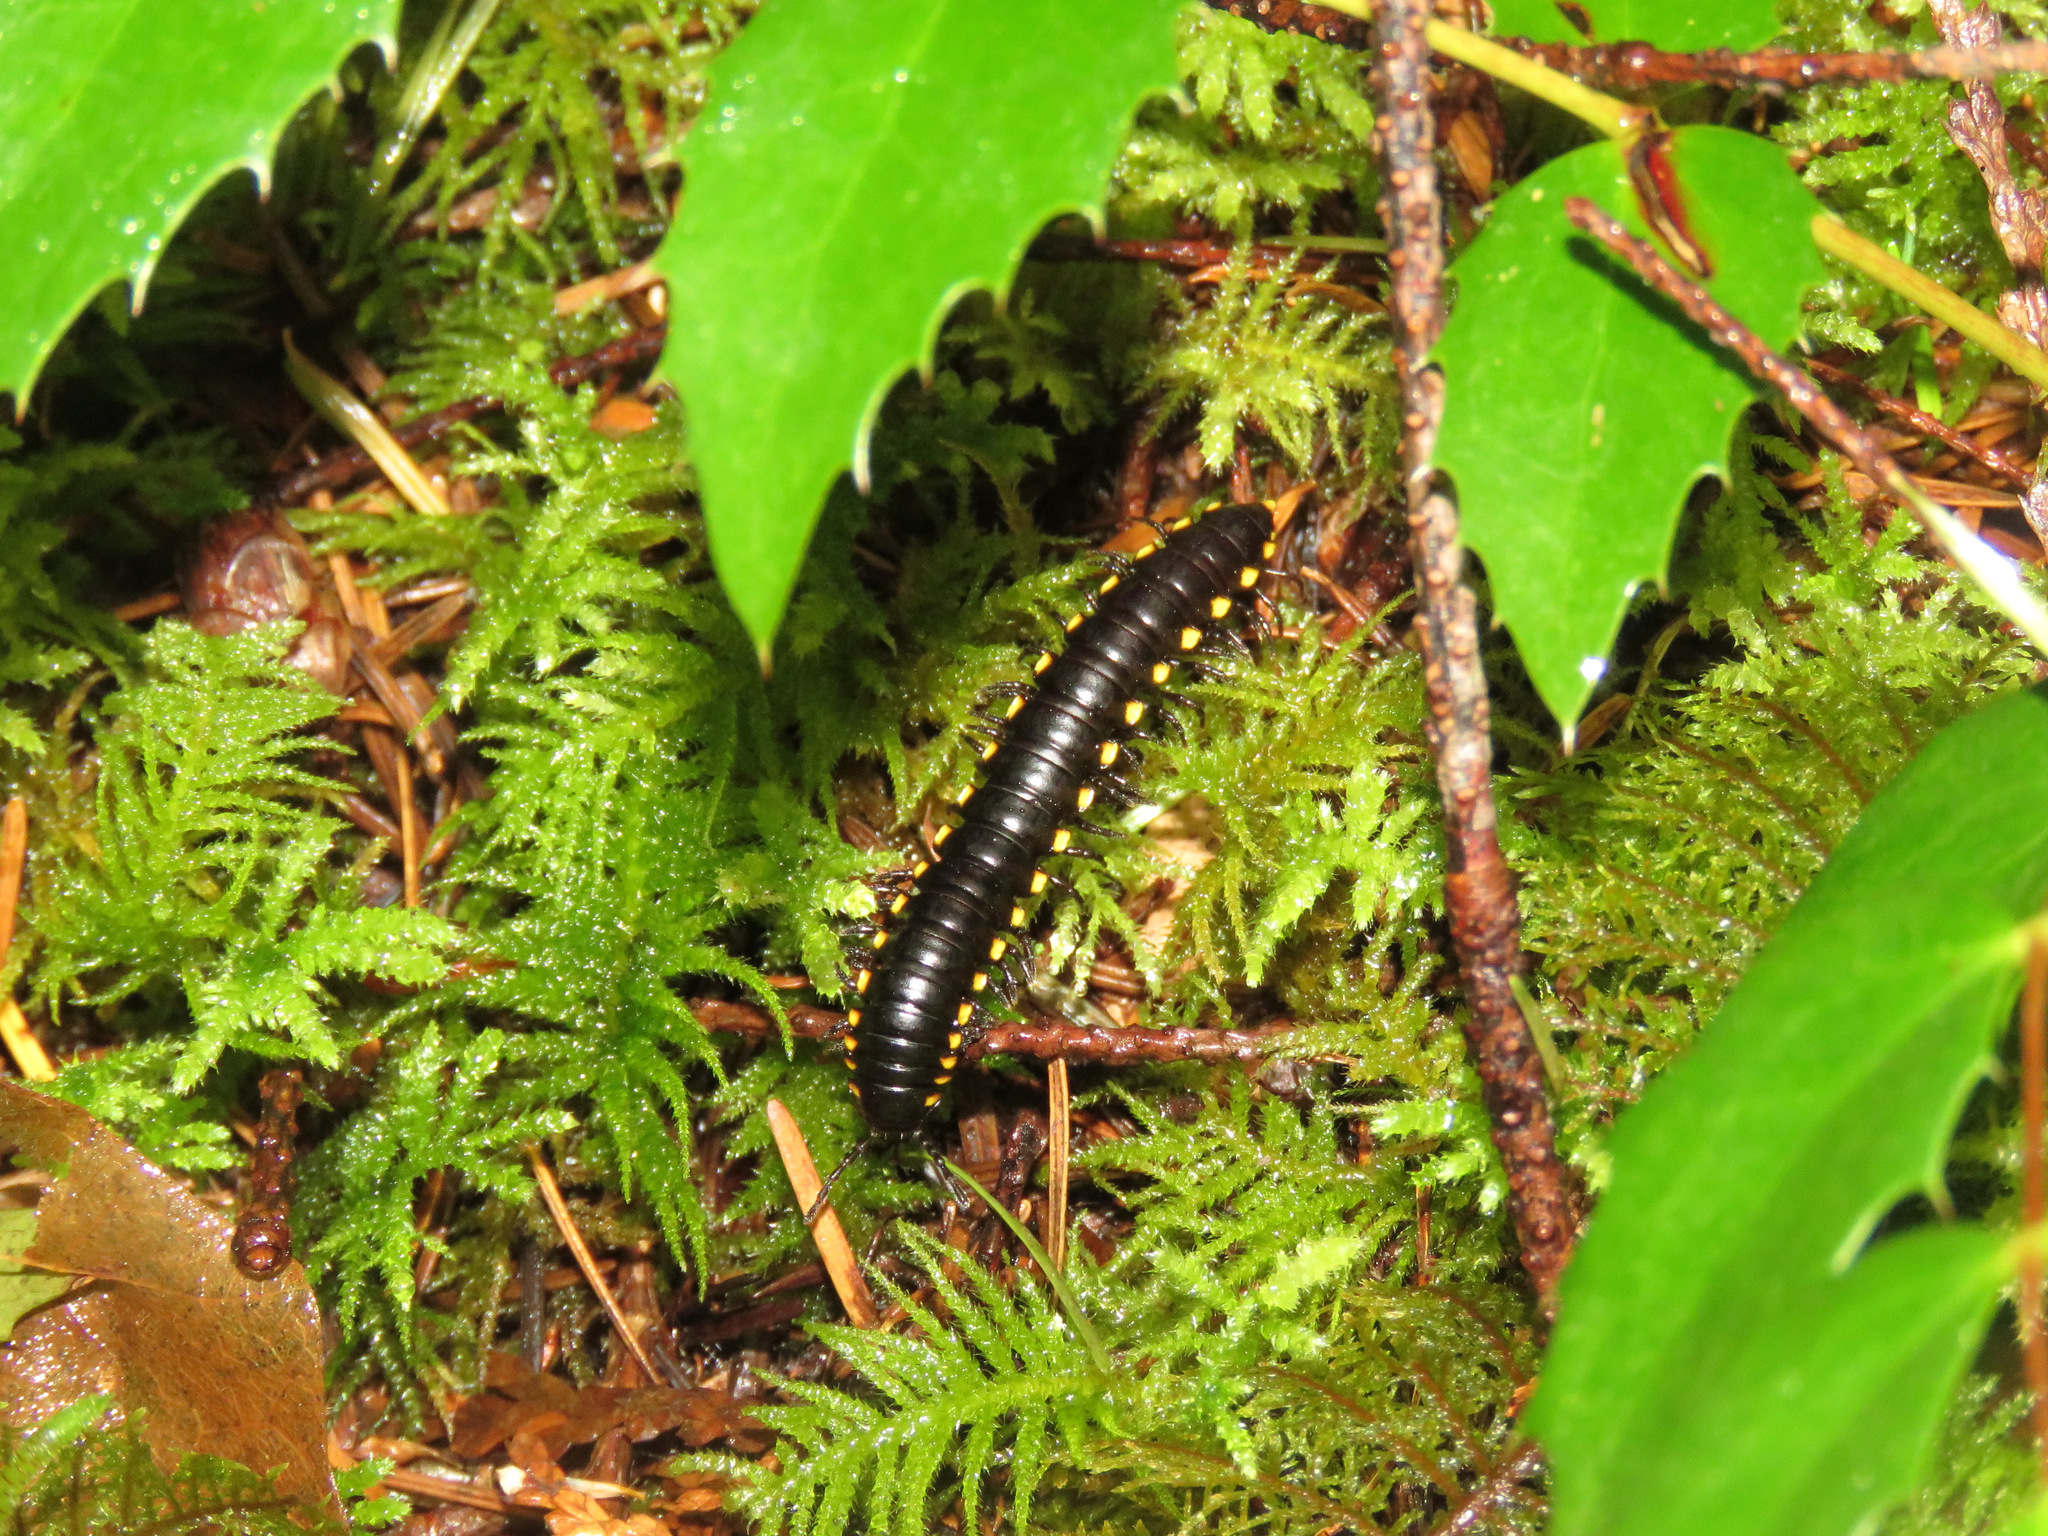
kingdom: Animalia
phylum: Arthropoda
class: Diplopoda
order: Polydesmida
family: Xystodesmidae
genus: Harpaphe
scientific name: Harpaphe haydeniana
